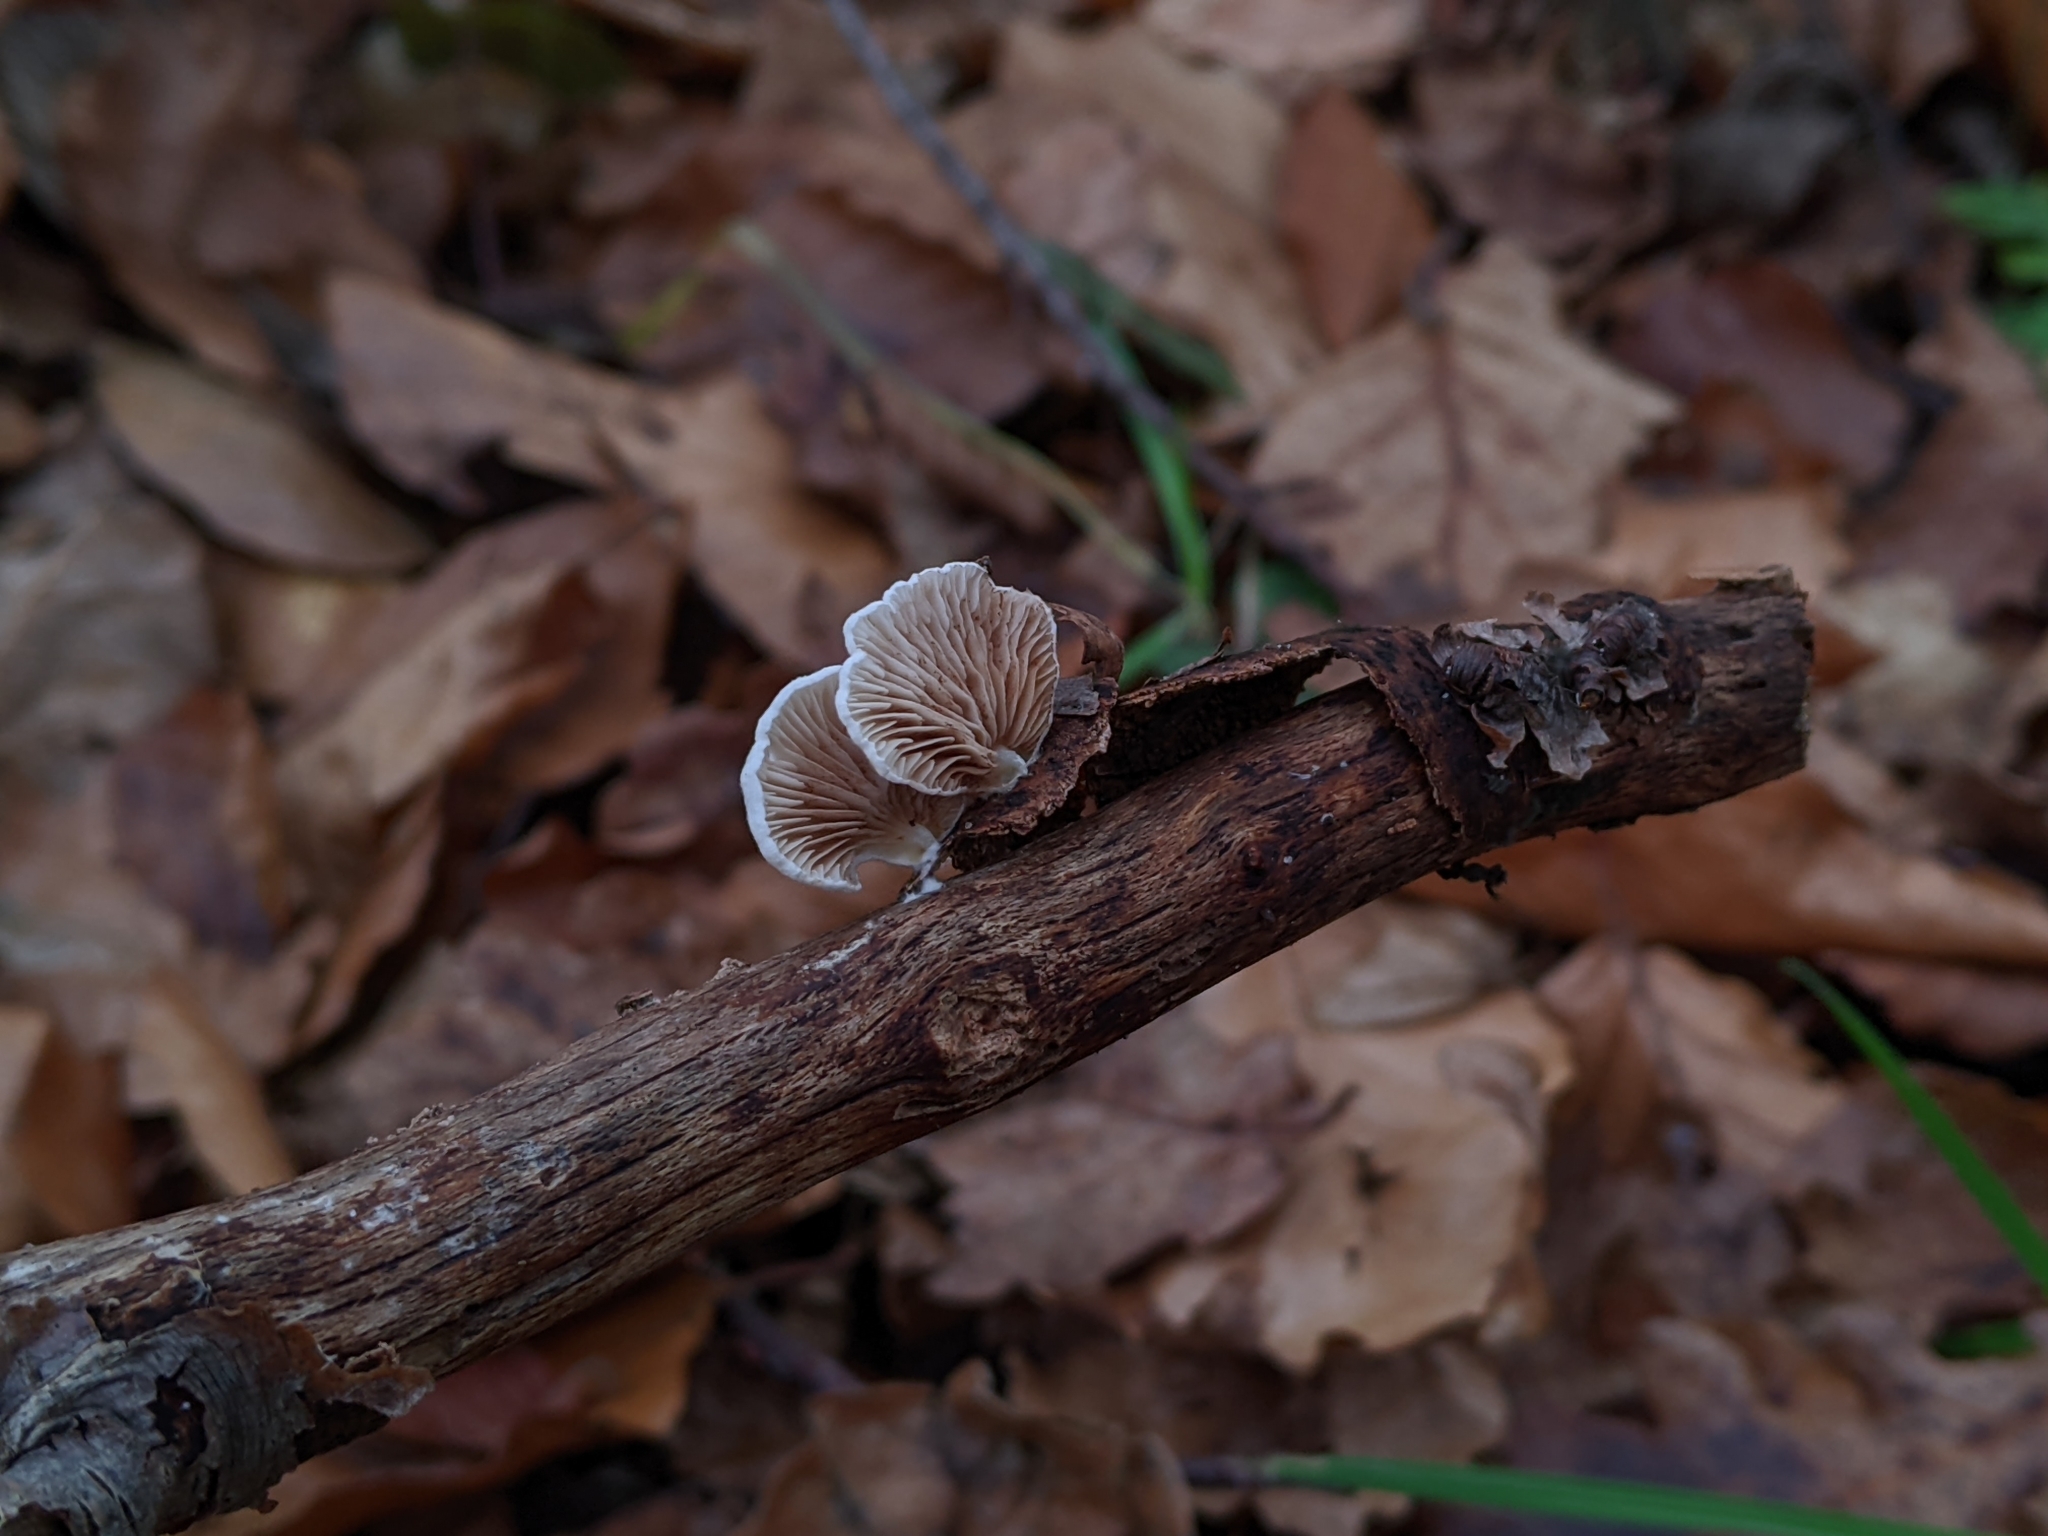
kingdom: Fungi
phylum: Basidiomycota
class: Agaricomycetes
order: Agaricales
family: Schizophyllaceae
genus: Schizophyllum
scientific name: Schizophyllum commune
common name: Common porecrust
